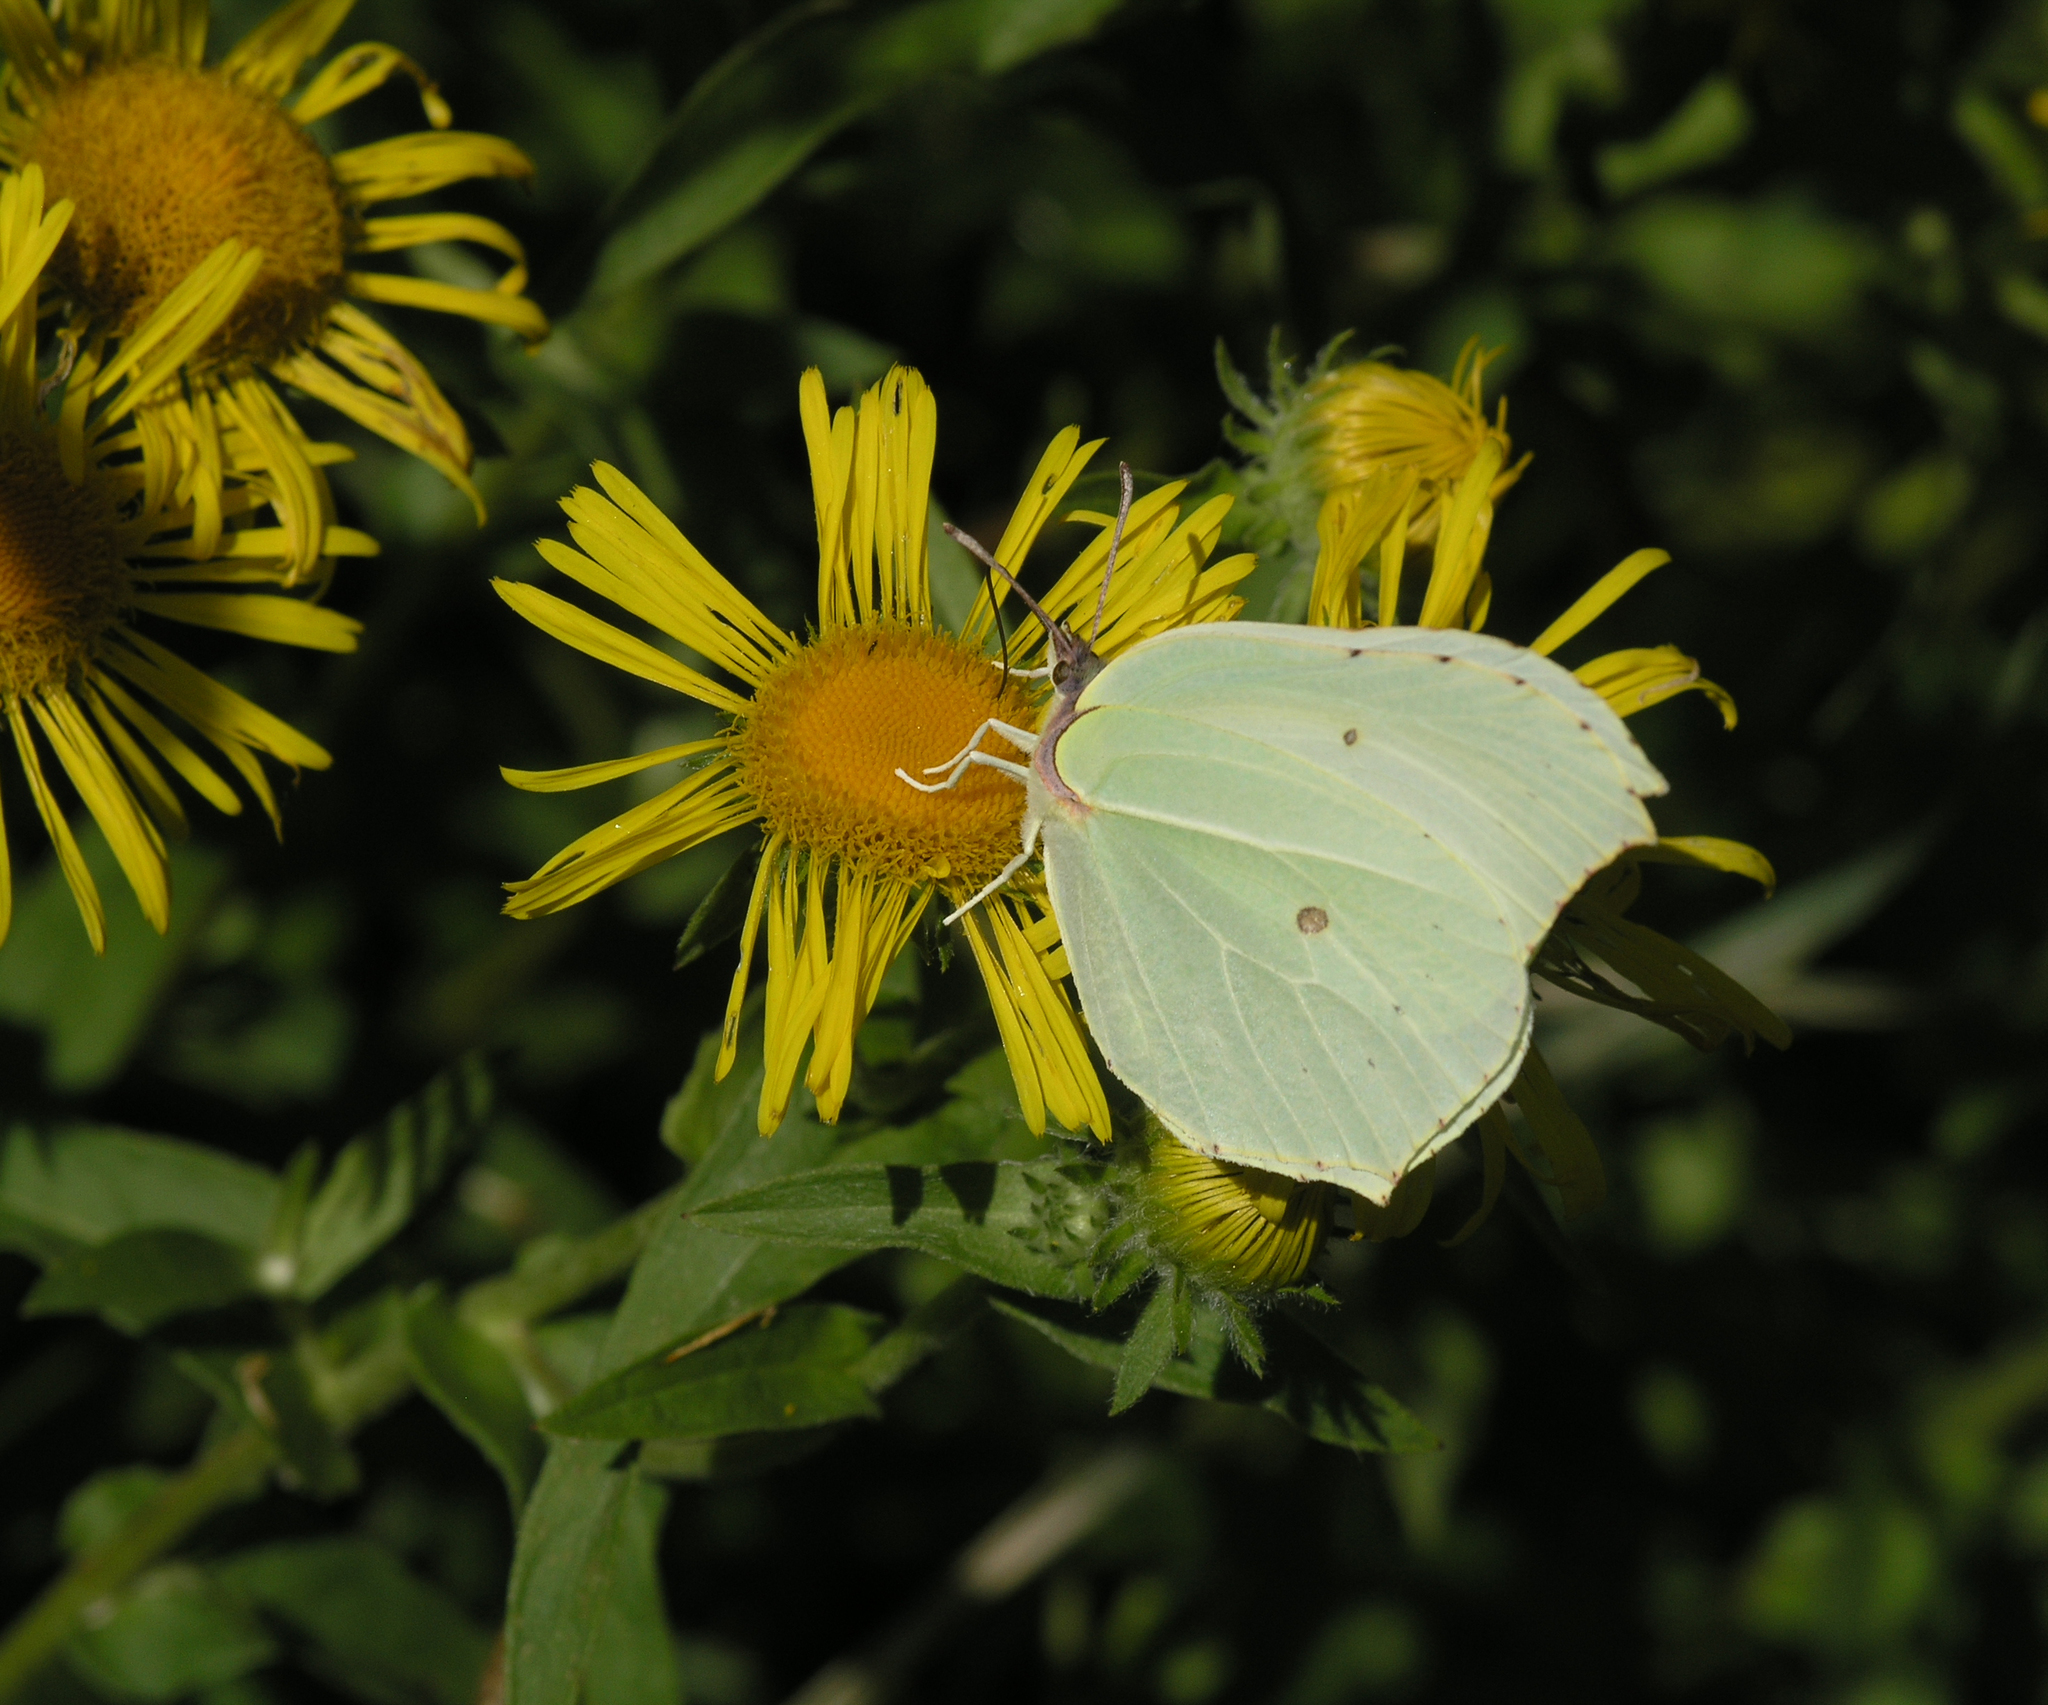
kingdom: Plantae
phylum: Tracheophyta
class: Magnoliopsida
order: Asterales
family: Asteraceae
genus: Pentanema
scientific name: Pentanema britannicum
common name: British elecampane
